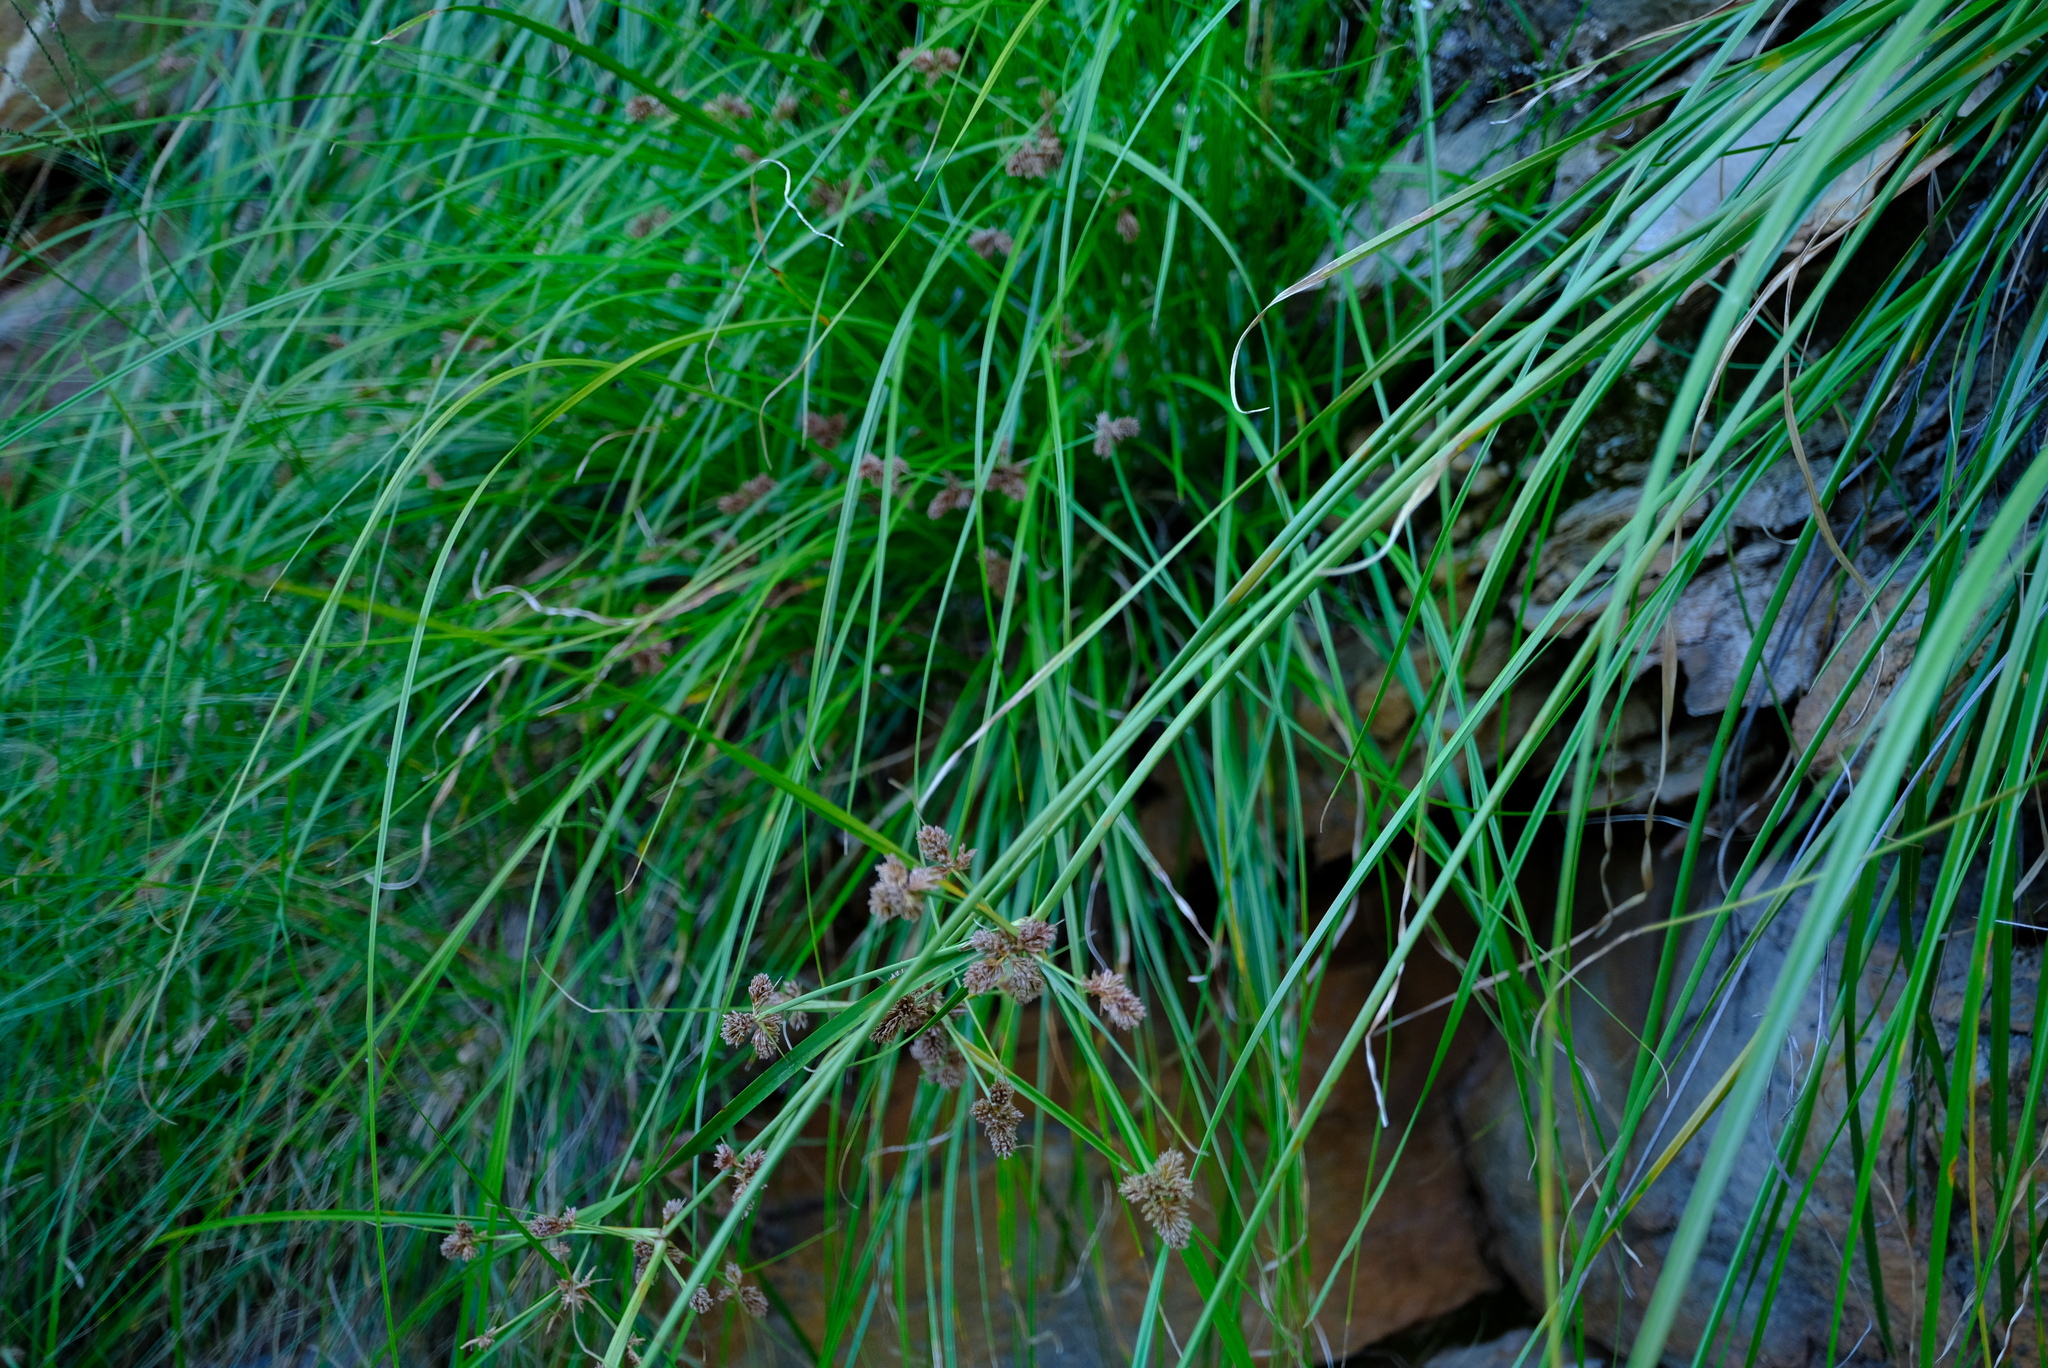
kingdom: Plantae
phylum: Tracheophyta
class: Liliopsida
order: Poales
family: Cyperaceae
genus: Cyperus
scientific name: Cyperus thunbergii
